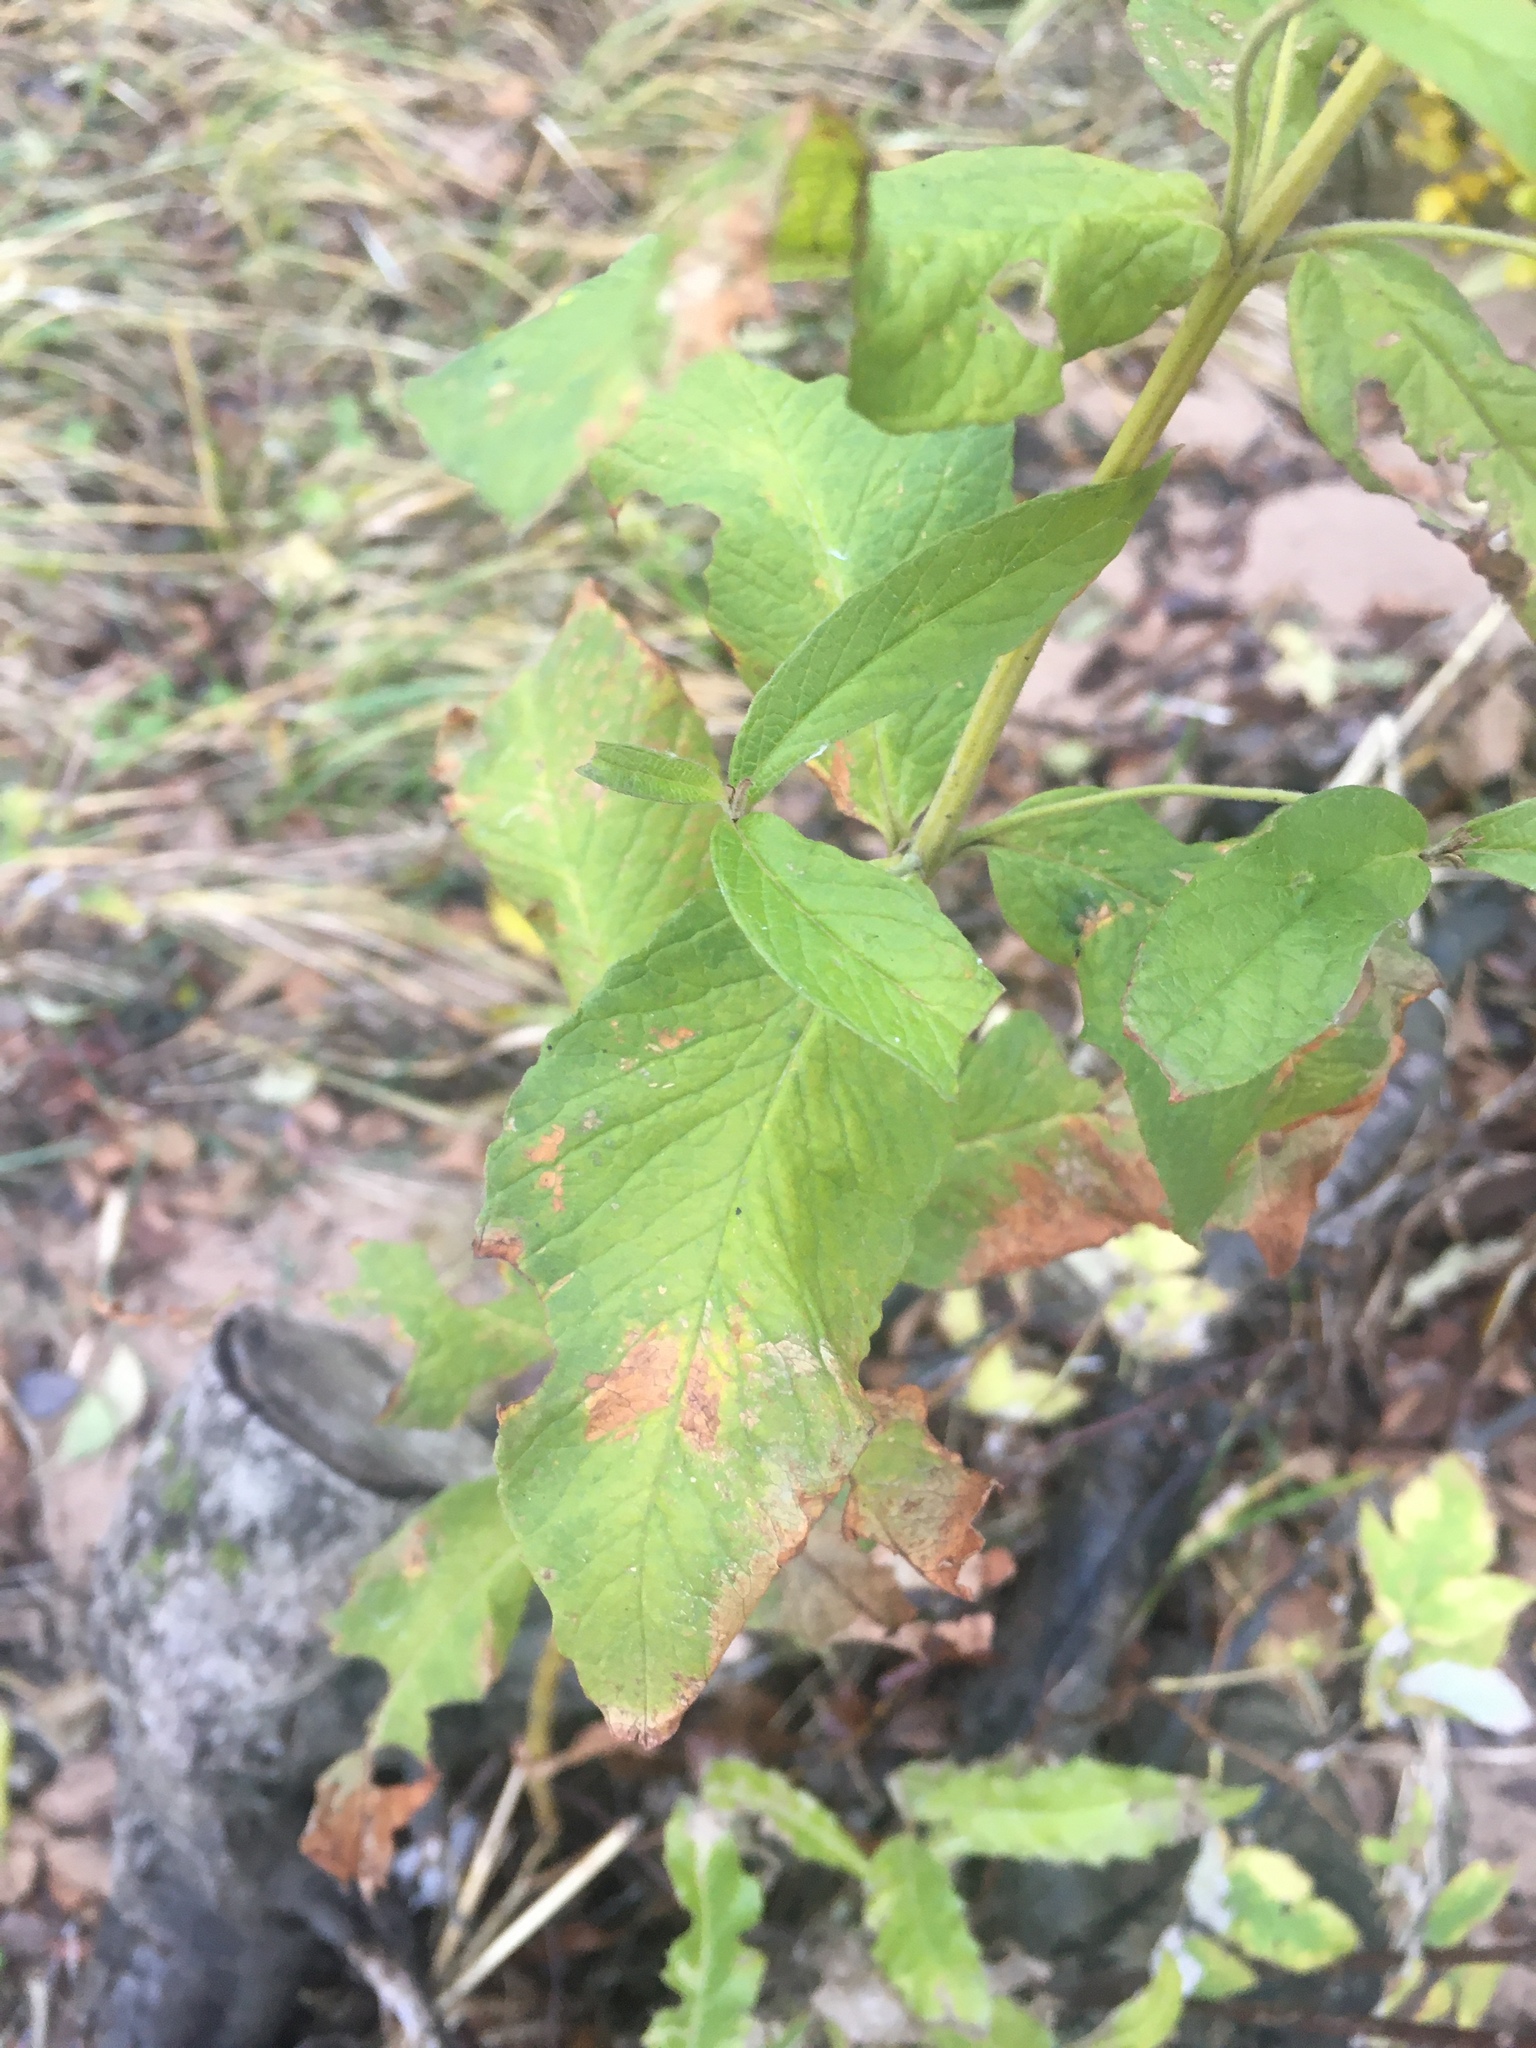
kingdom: Plantae
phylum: Tracheophyta
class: Magnoliopsida
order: Ericales
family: Primulaceae
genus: Lysimachia
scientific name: Lysimachia vulgaris
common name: Yellow loosestrife
